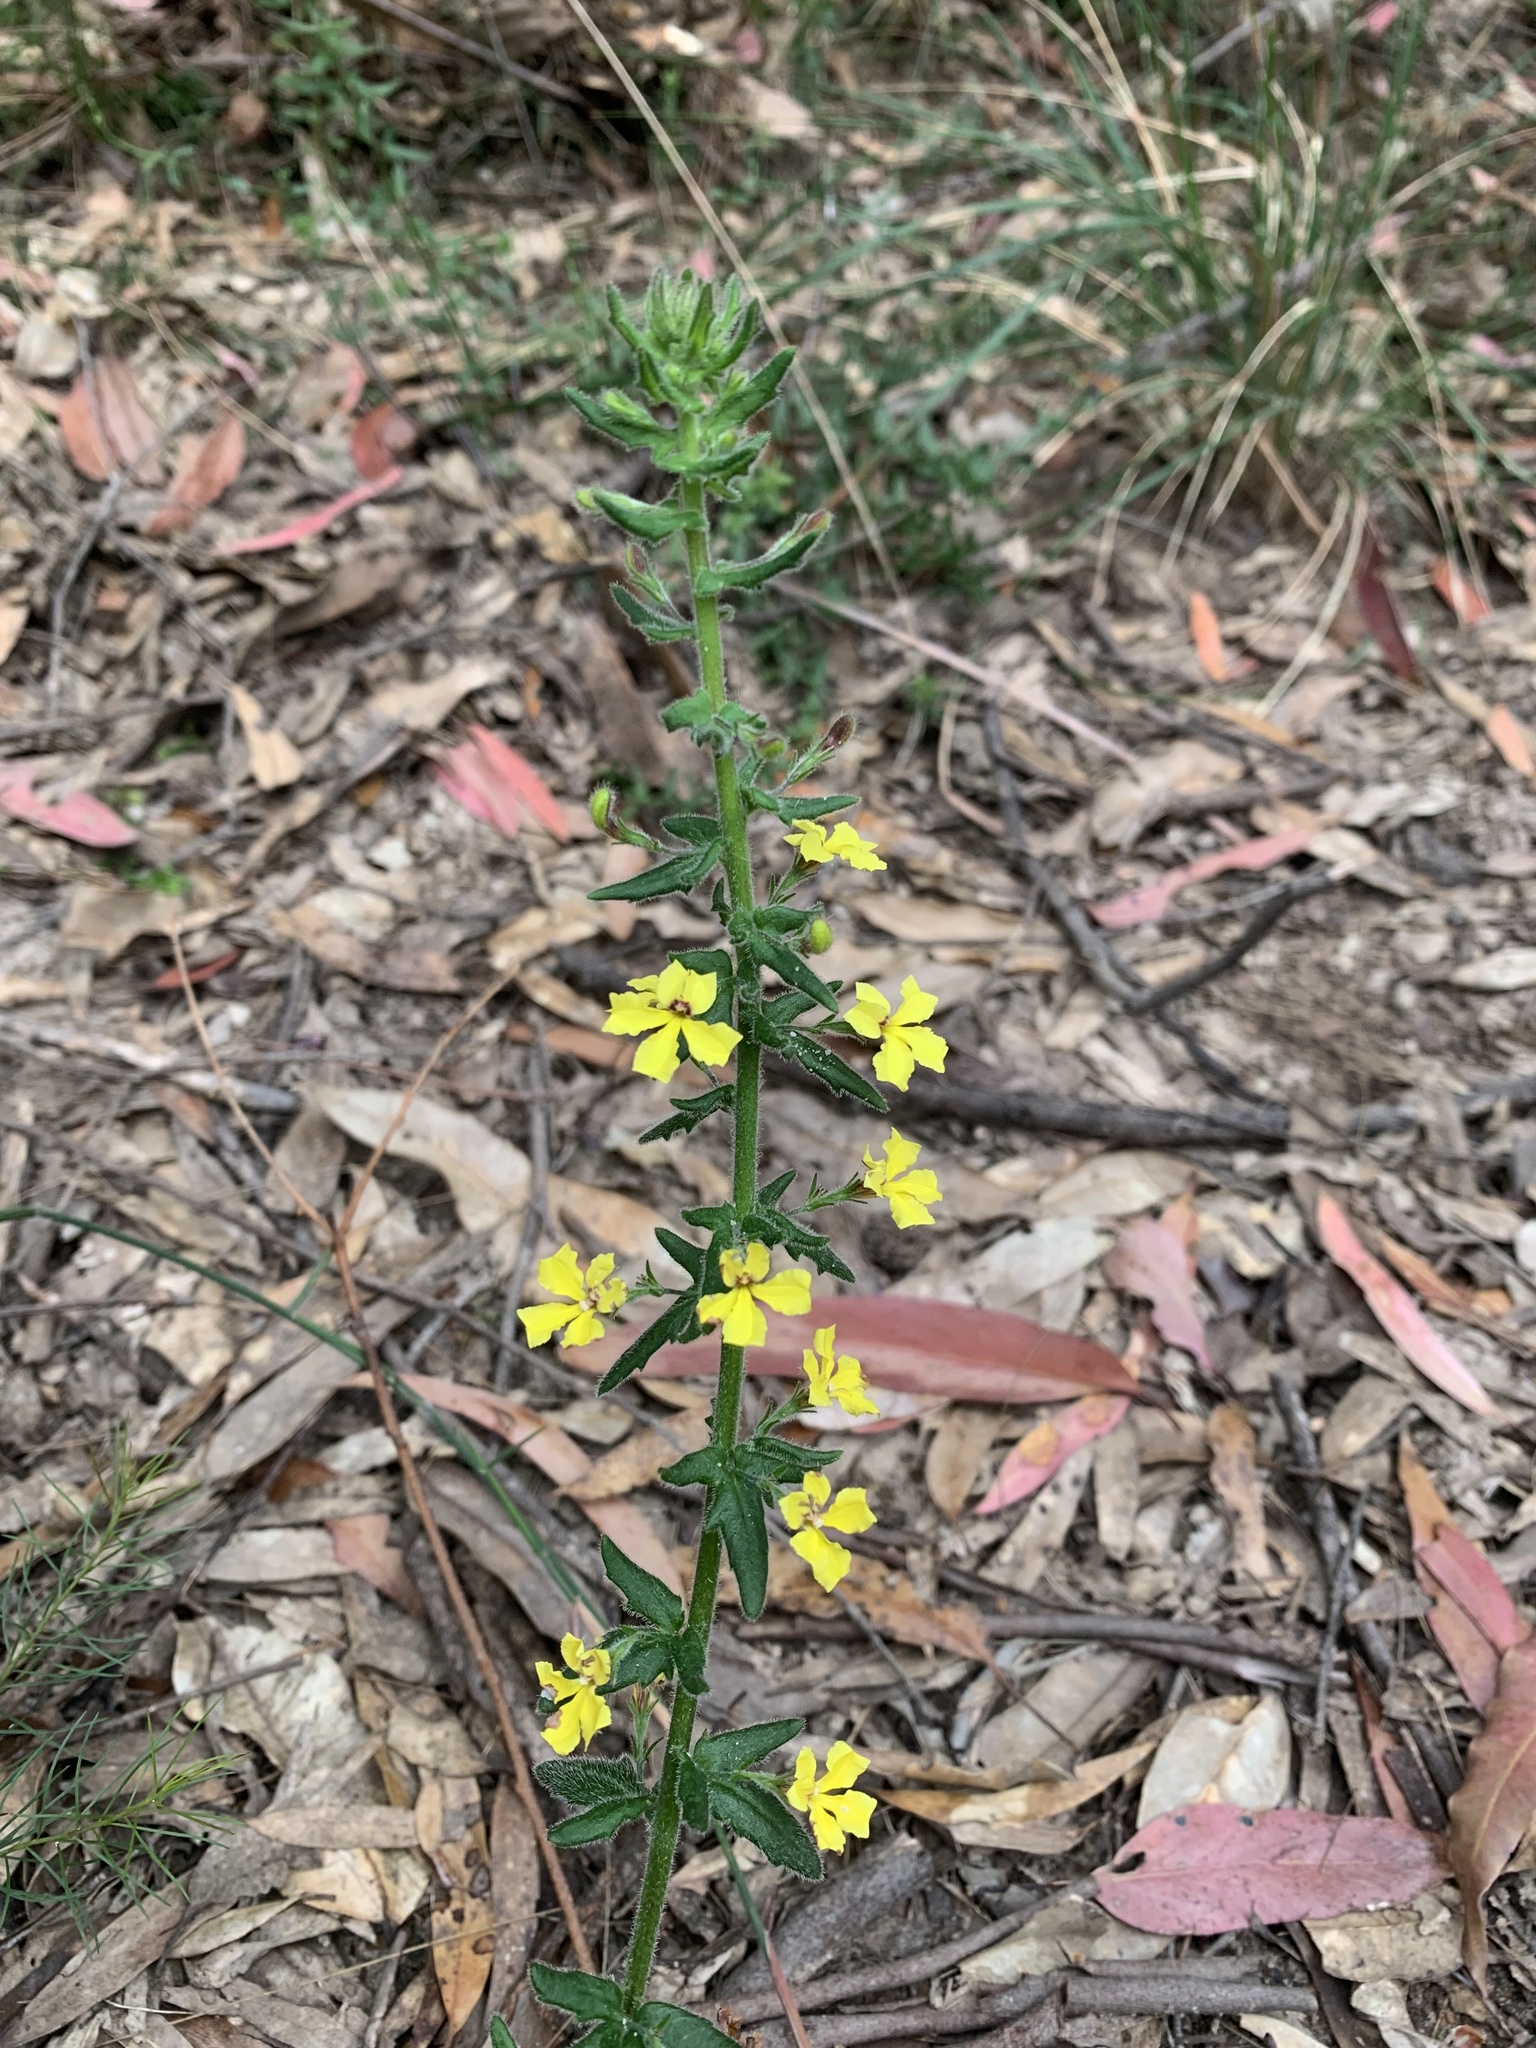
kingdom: Plantae
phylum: Tracheophyta
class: Magnoliopsida
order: Asterales
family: Goodeniaceae
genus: Goodenia
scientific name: Goodenia heterophylla
